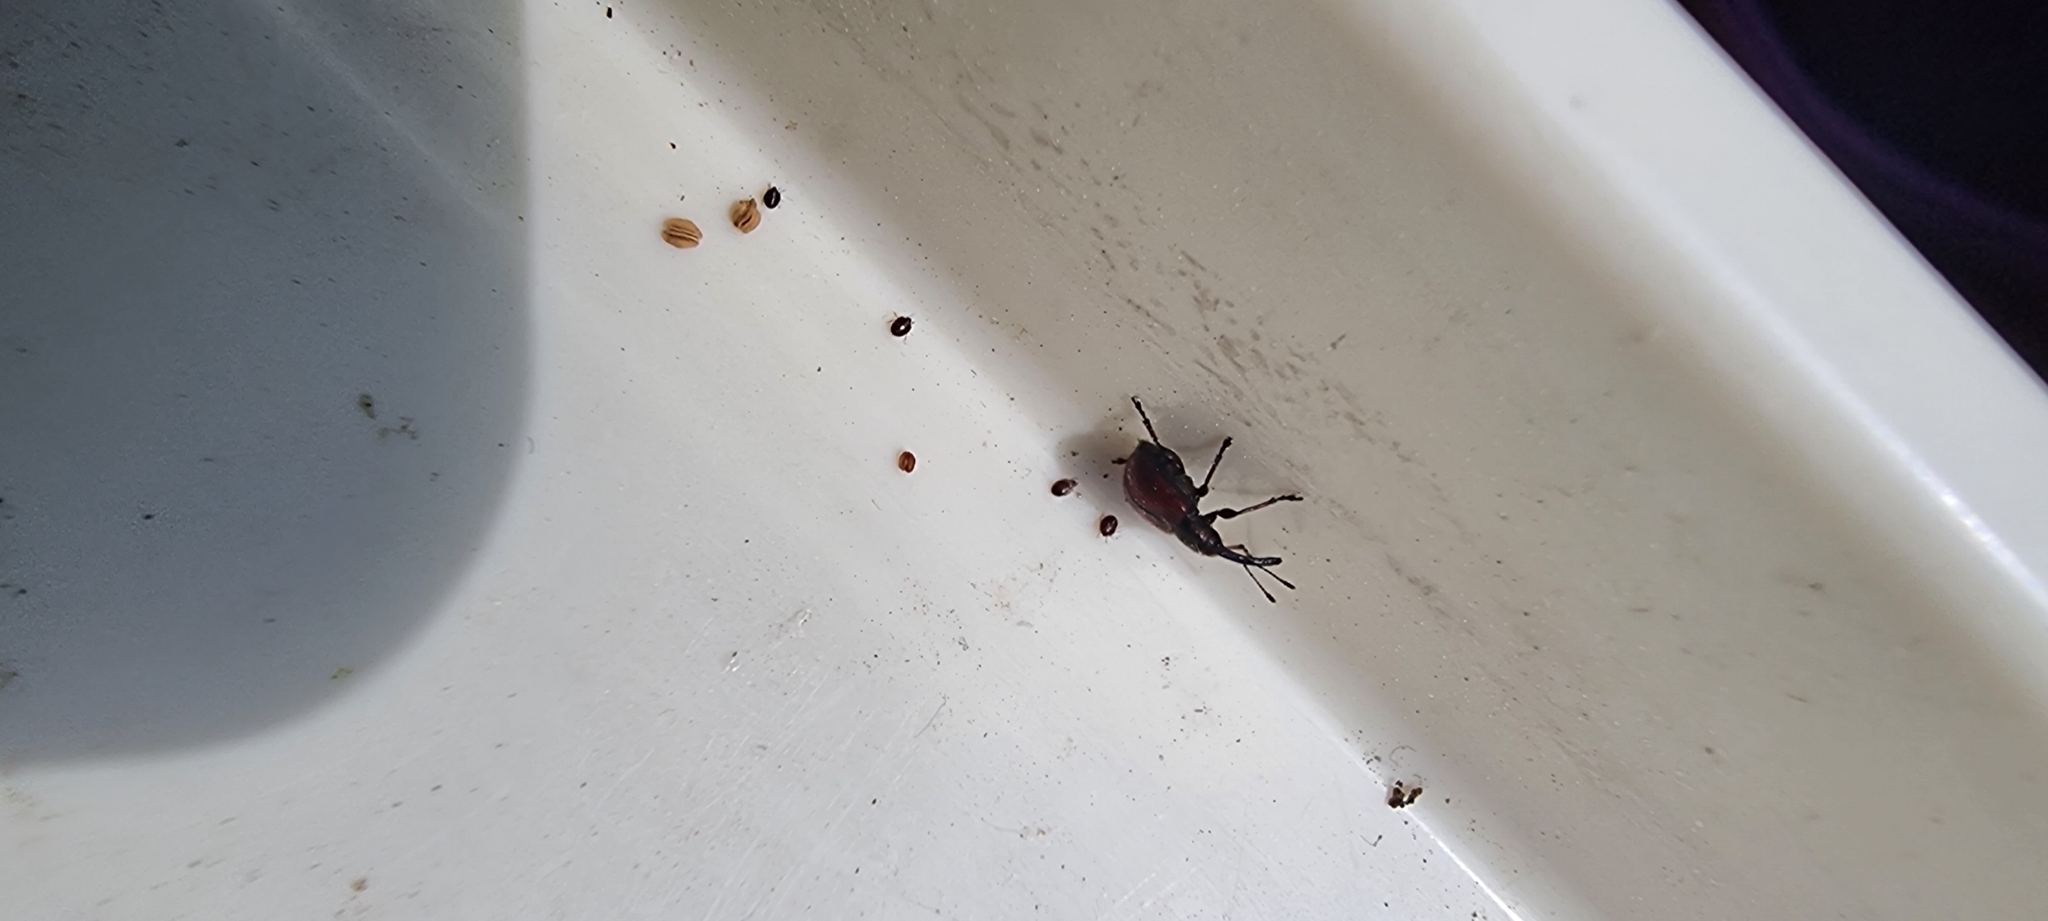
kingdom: Animalia
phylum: Arthropoda
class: Insecta
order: Coleoptera
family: Rhynchitidae
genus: Tatianaerhynchites
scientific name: Tatianaerhynchites aequatus
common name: Apple fruit rhynchites
